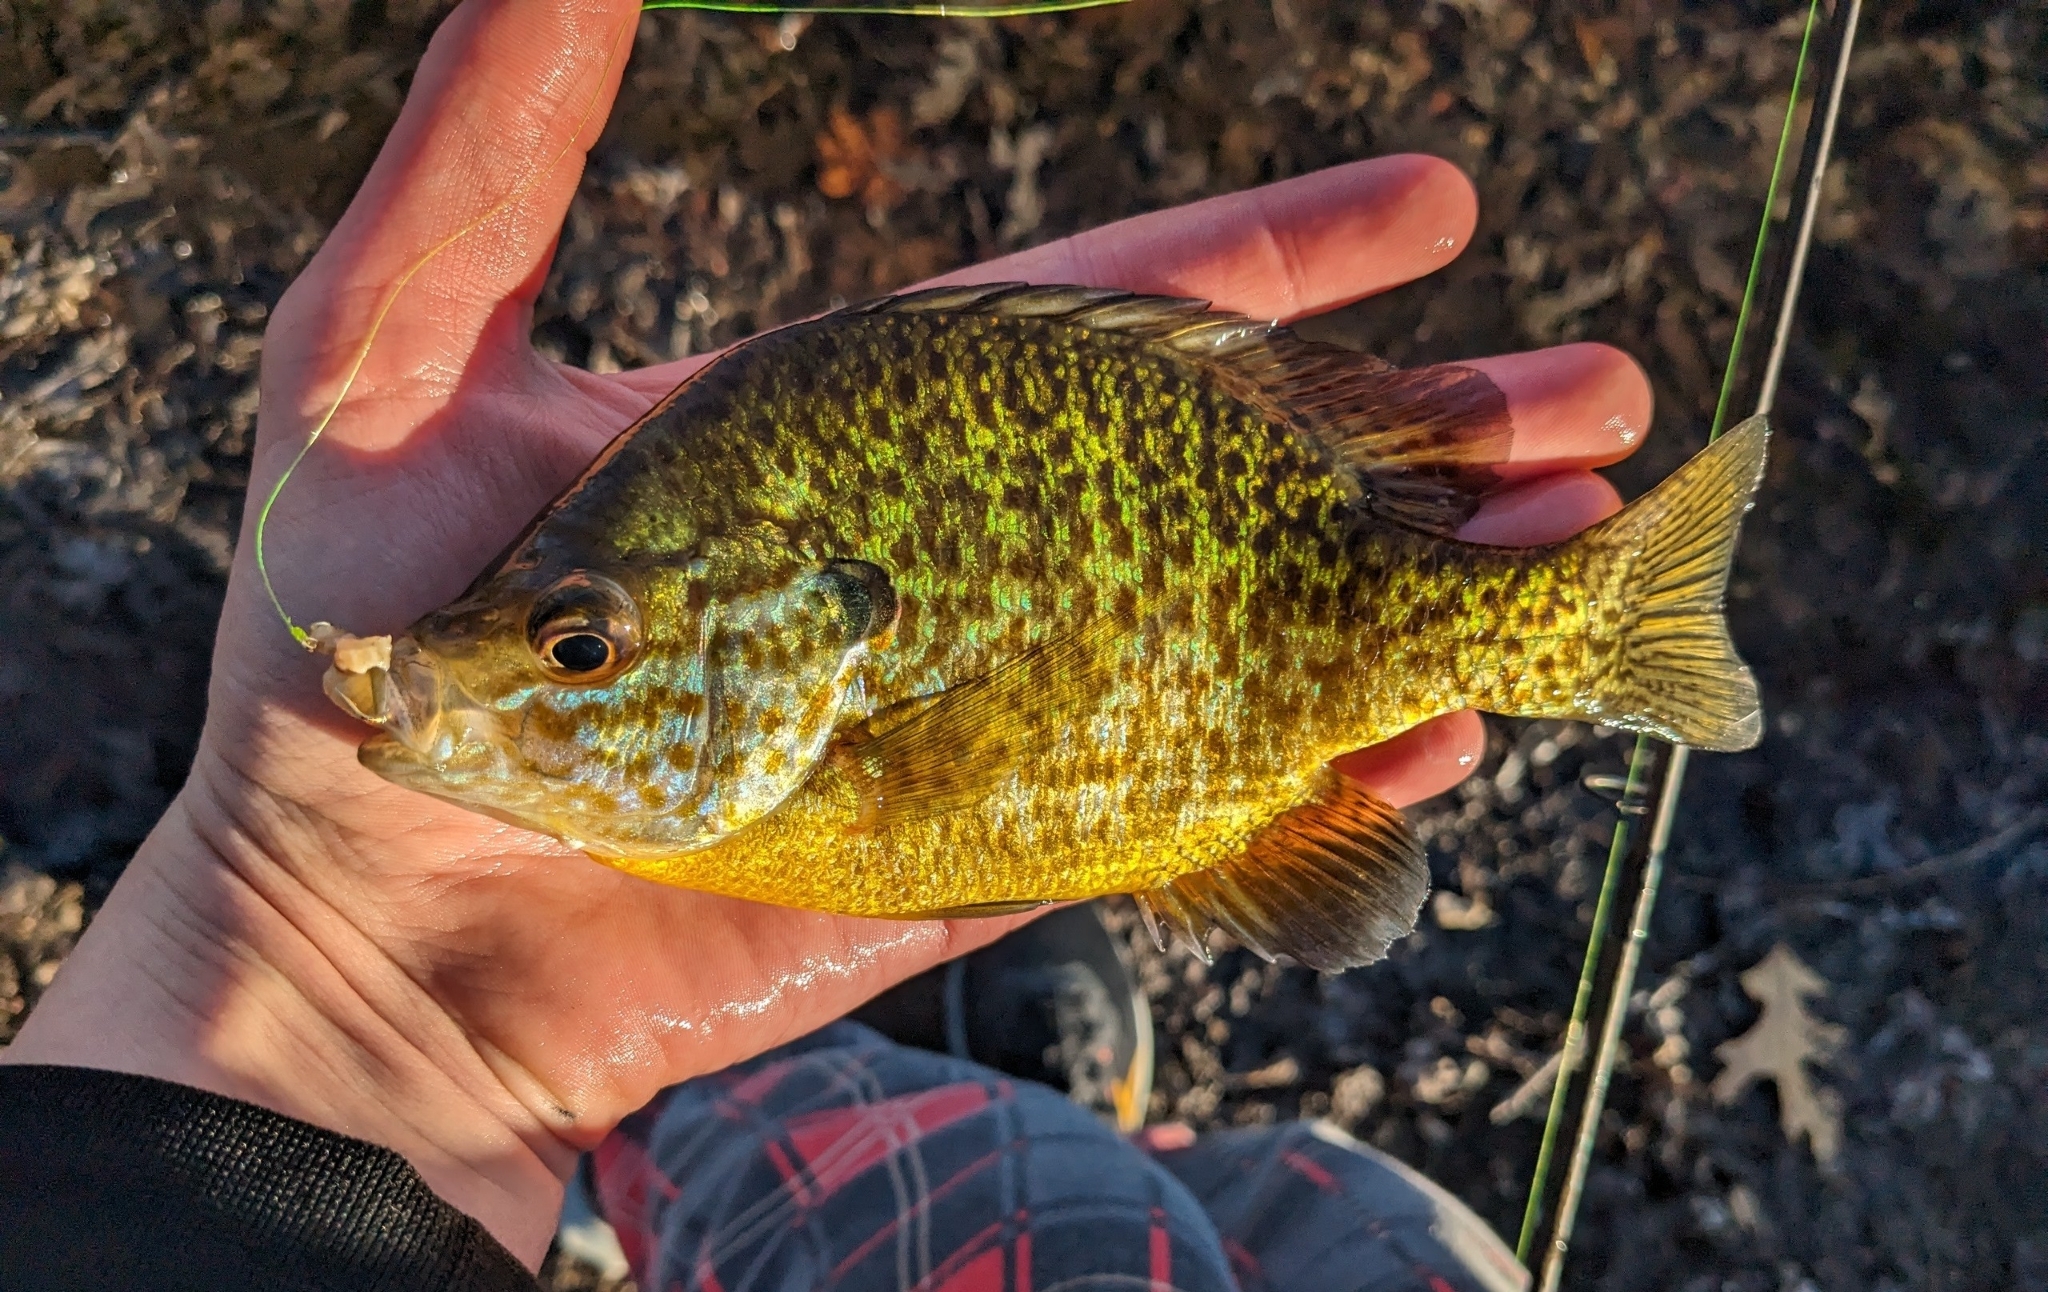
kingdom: Animalia
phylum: Chordata
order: Perciformes
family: Centrarchidae
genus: Lepomis
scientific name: Lepomis
